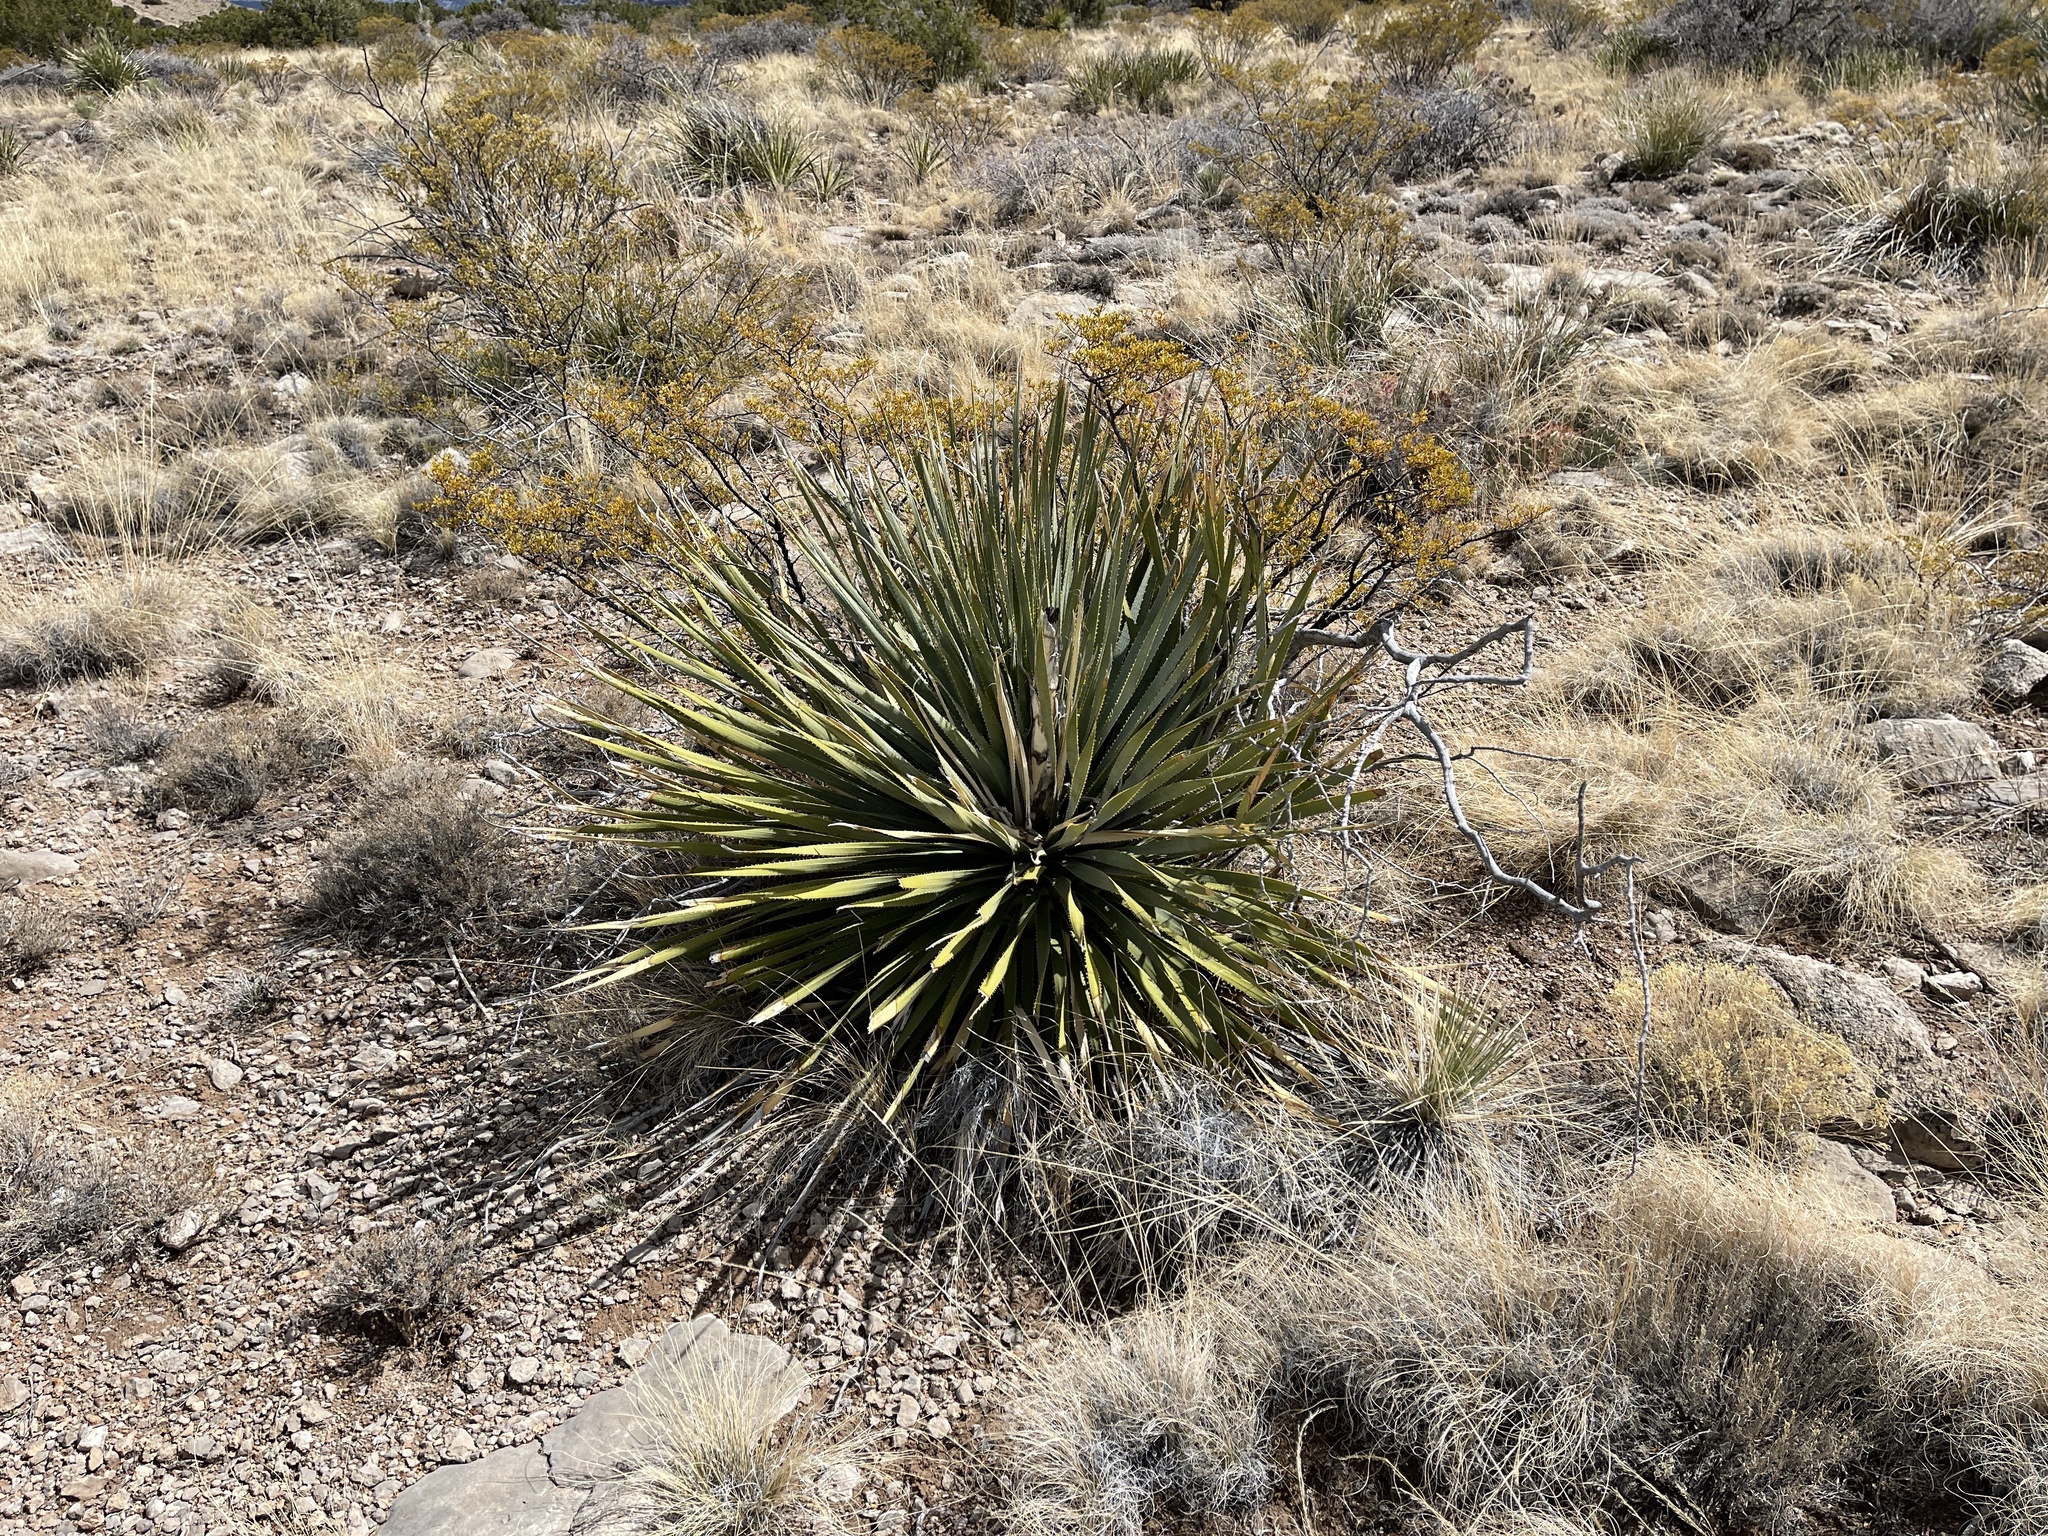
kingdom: Plantae
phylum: Tracheophyta
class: Liliopsida
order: Asparagales
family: Asparagaceae
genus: Dasylirion
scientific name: Dasylirion wheeleri
